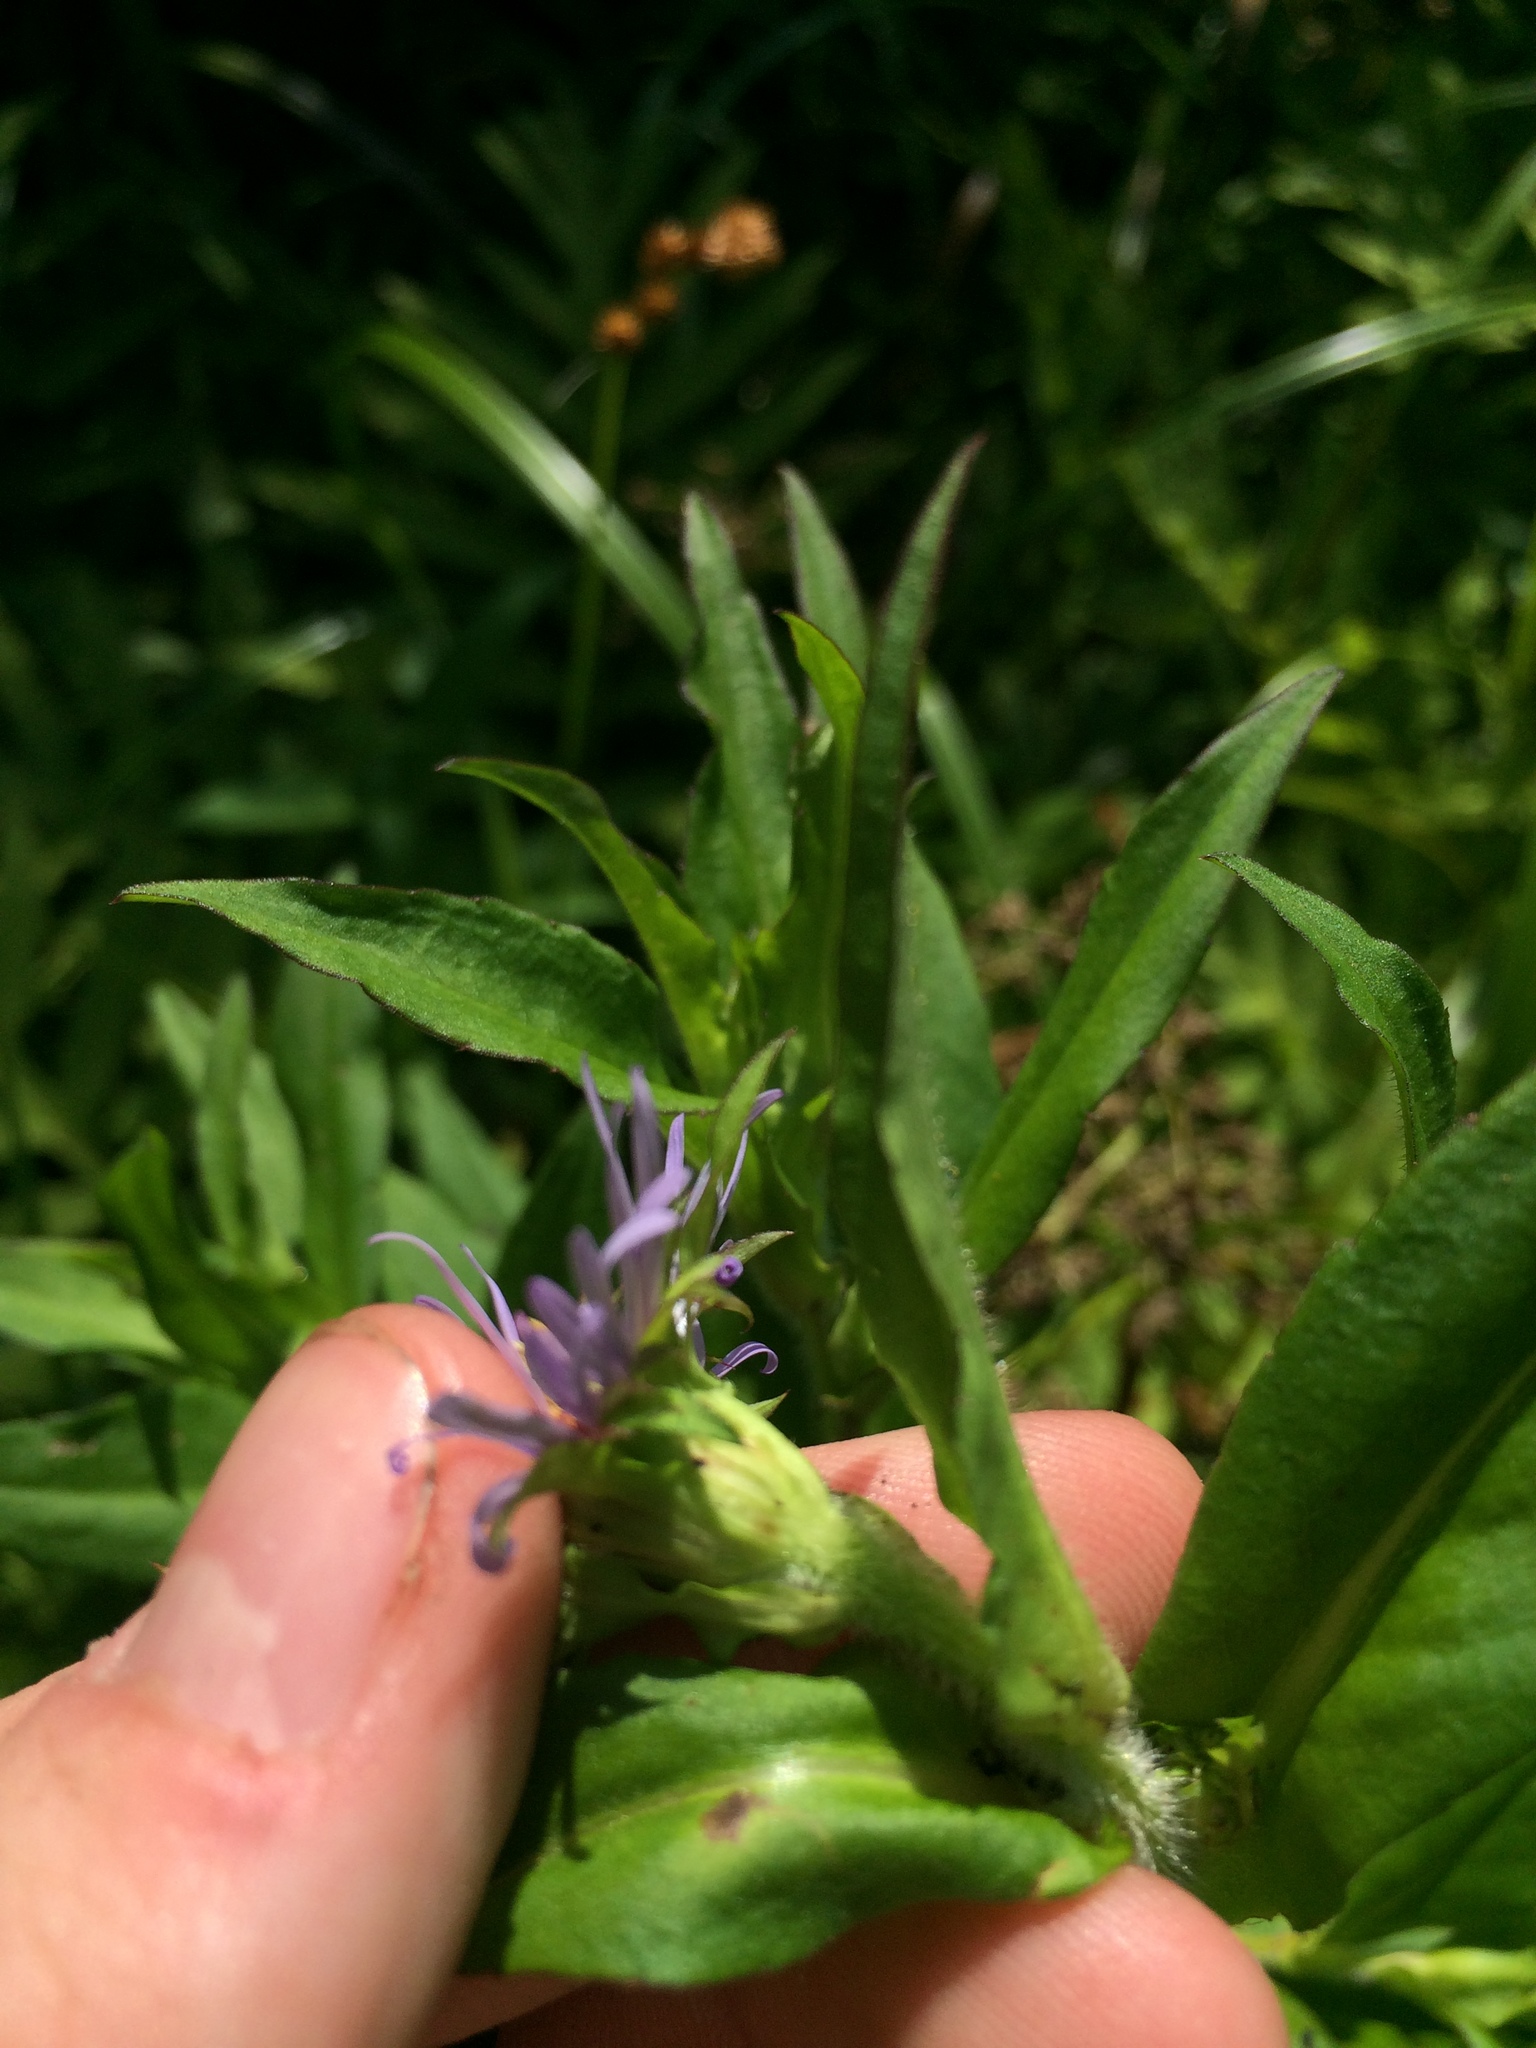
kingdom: Plantae
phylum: Tracheophyta
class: Magnoliopsida
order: Asterales
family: Asteraceae
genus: Symphyotrichum
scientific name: Symphyotrichum puniceum
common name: Bog aster
